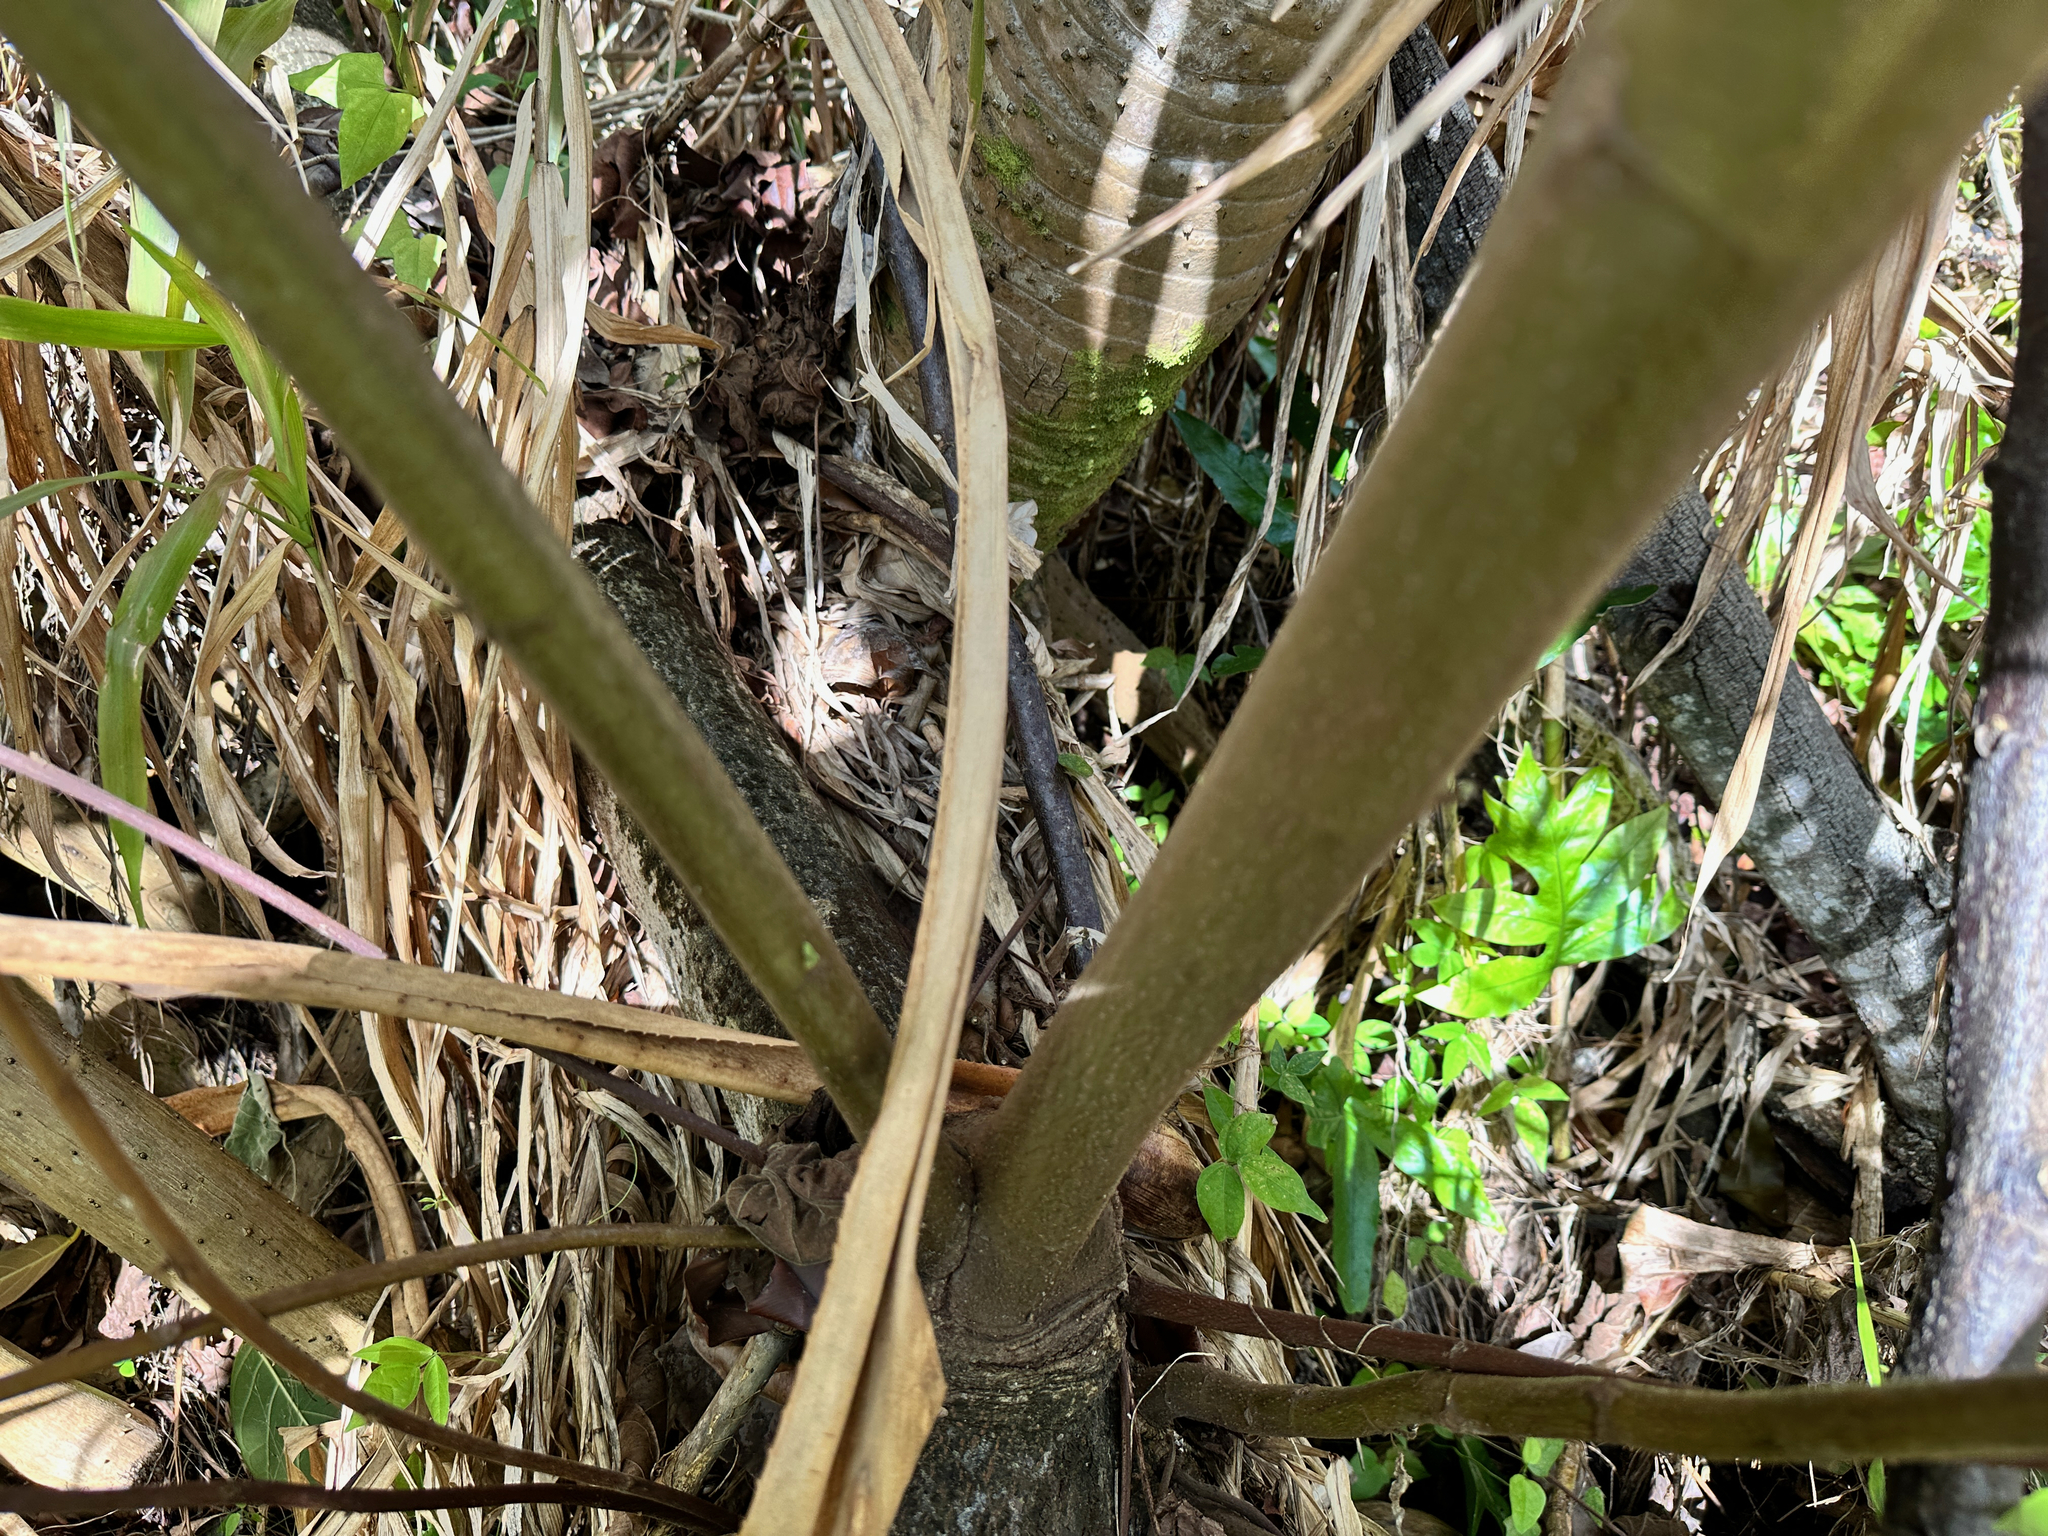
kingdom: Plantae
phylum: Tracheophyta
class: Magnoliopsida
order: Malvales
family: Malvaceae
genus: Melochia
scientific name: Melochia umbellata
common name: Gunpowder tree
